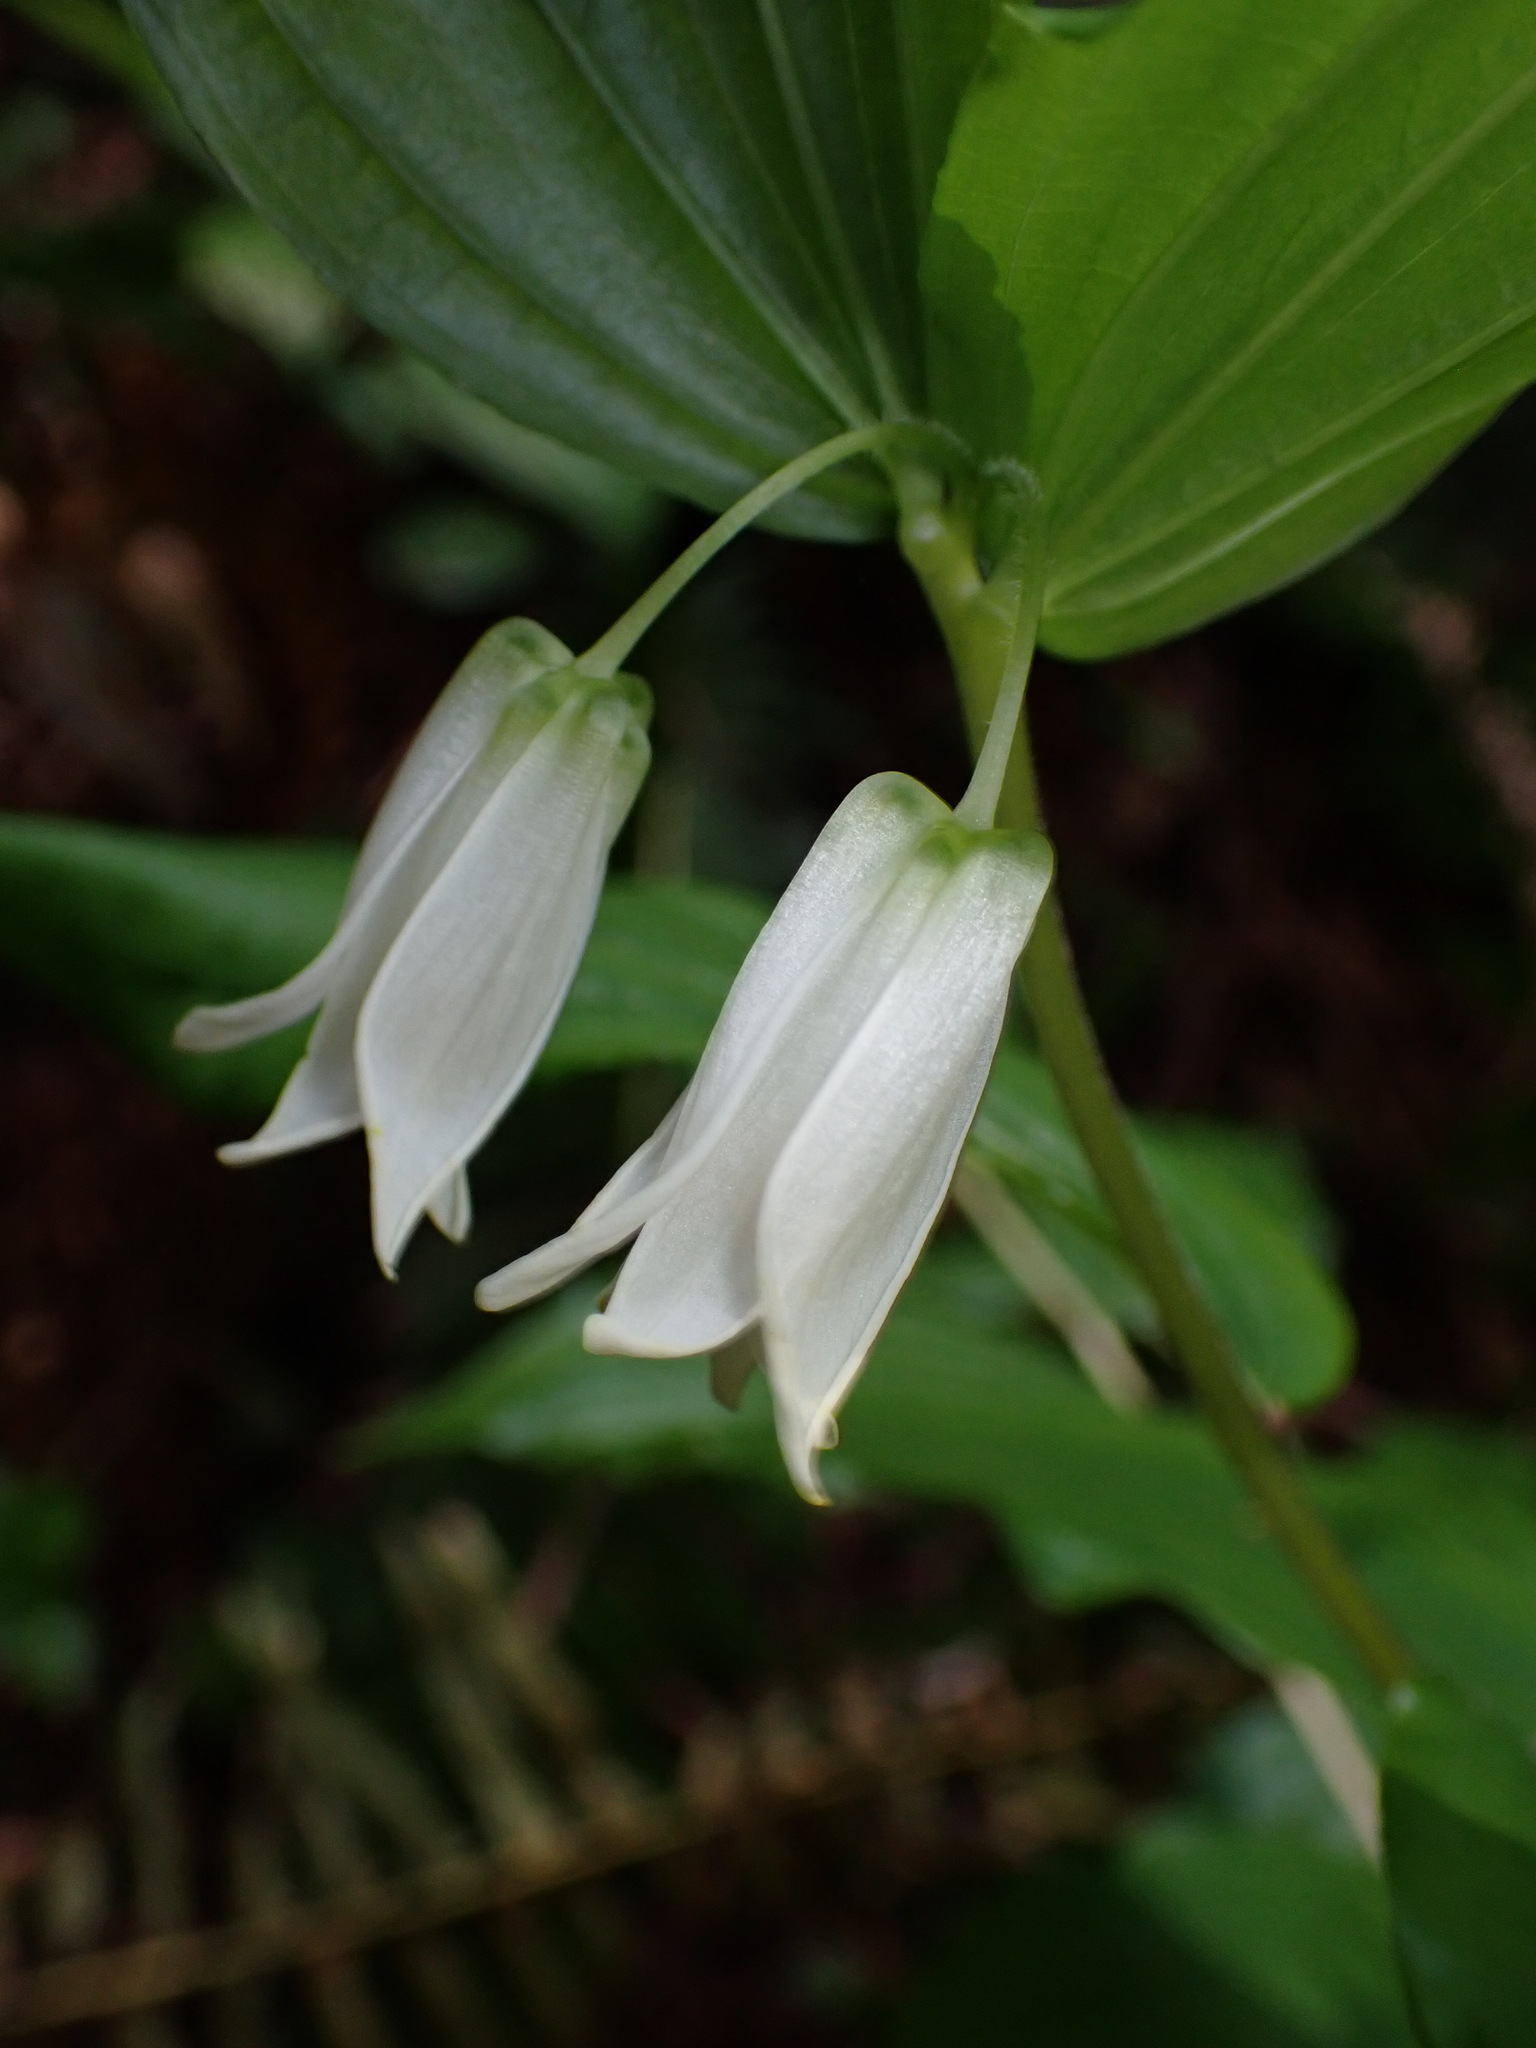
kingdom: Plantae
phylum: Tracheophyta
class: Liliopsida
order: Liliales
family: Liliaceae
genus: Prosartes
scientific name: Prosartes smithii
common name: Fairy-lantern
